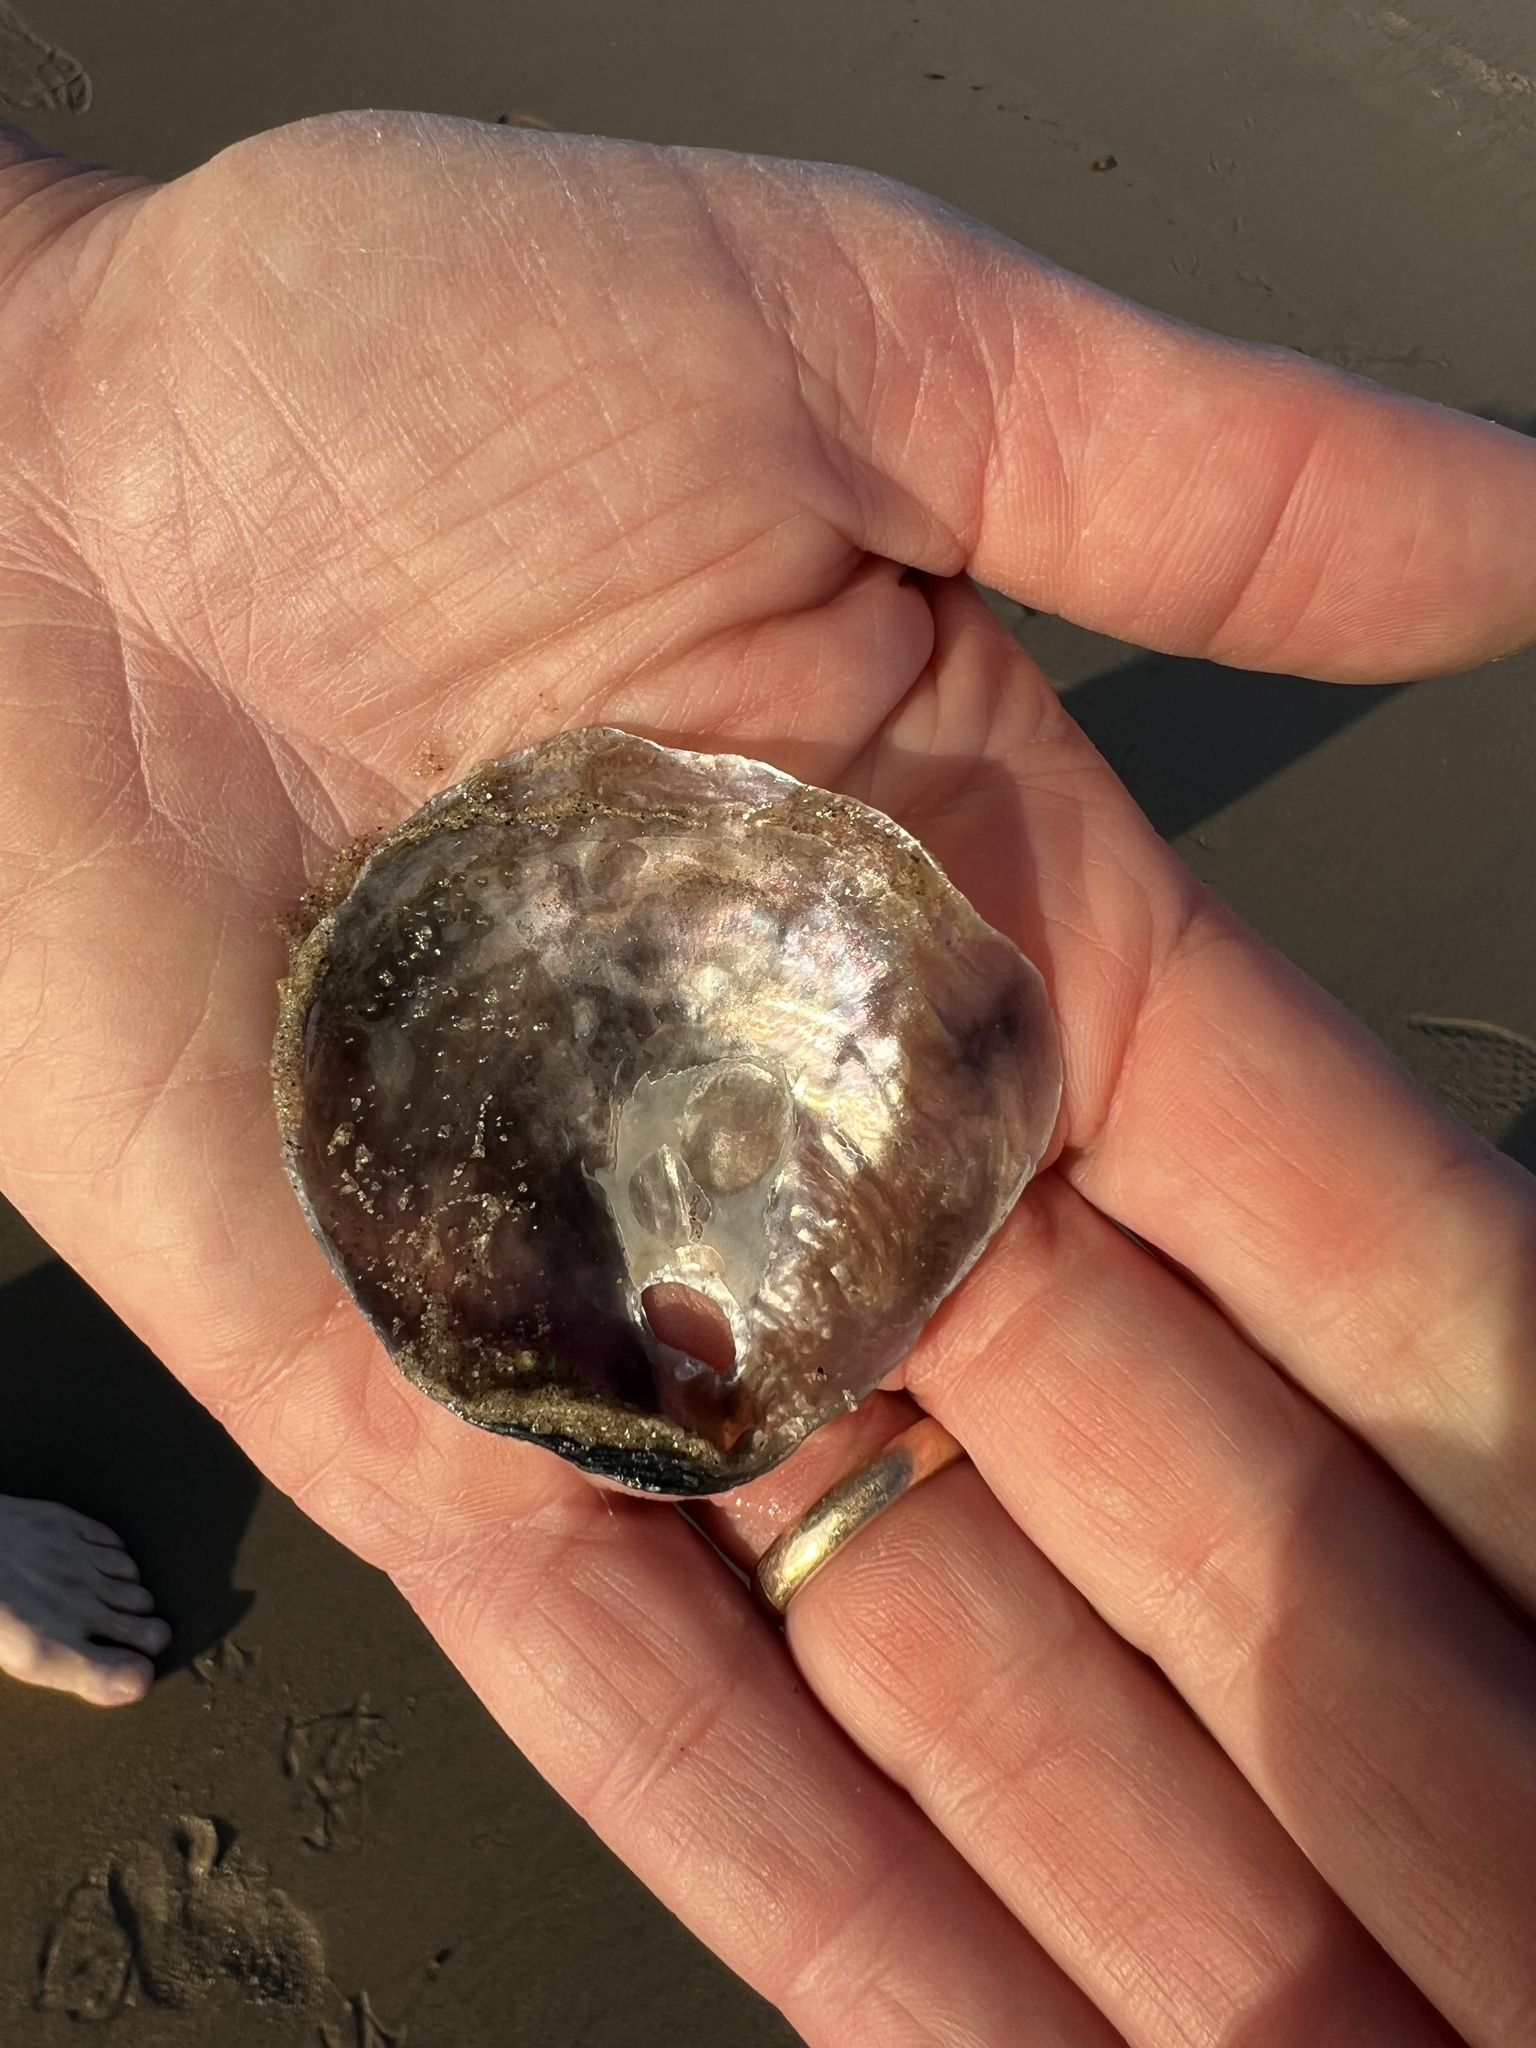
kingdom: Animalia
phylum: Mollusca
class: Bivalvia
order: Pectinida
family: Anomiidae
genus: Anomia
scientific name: Anomia peruviana
